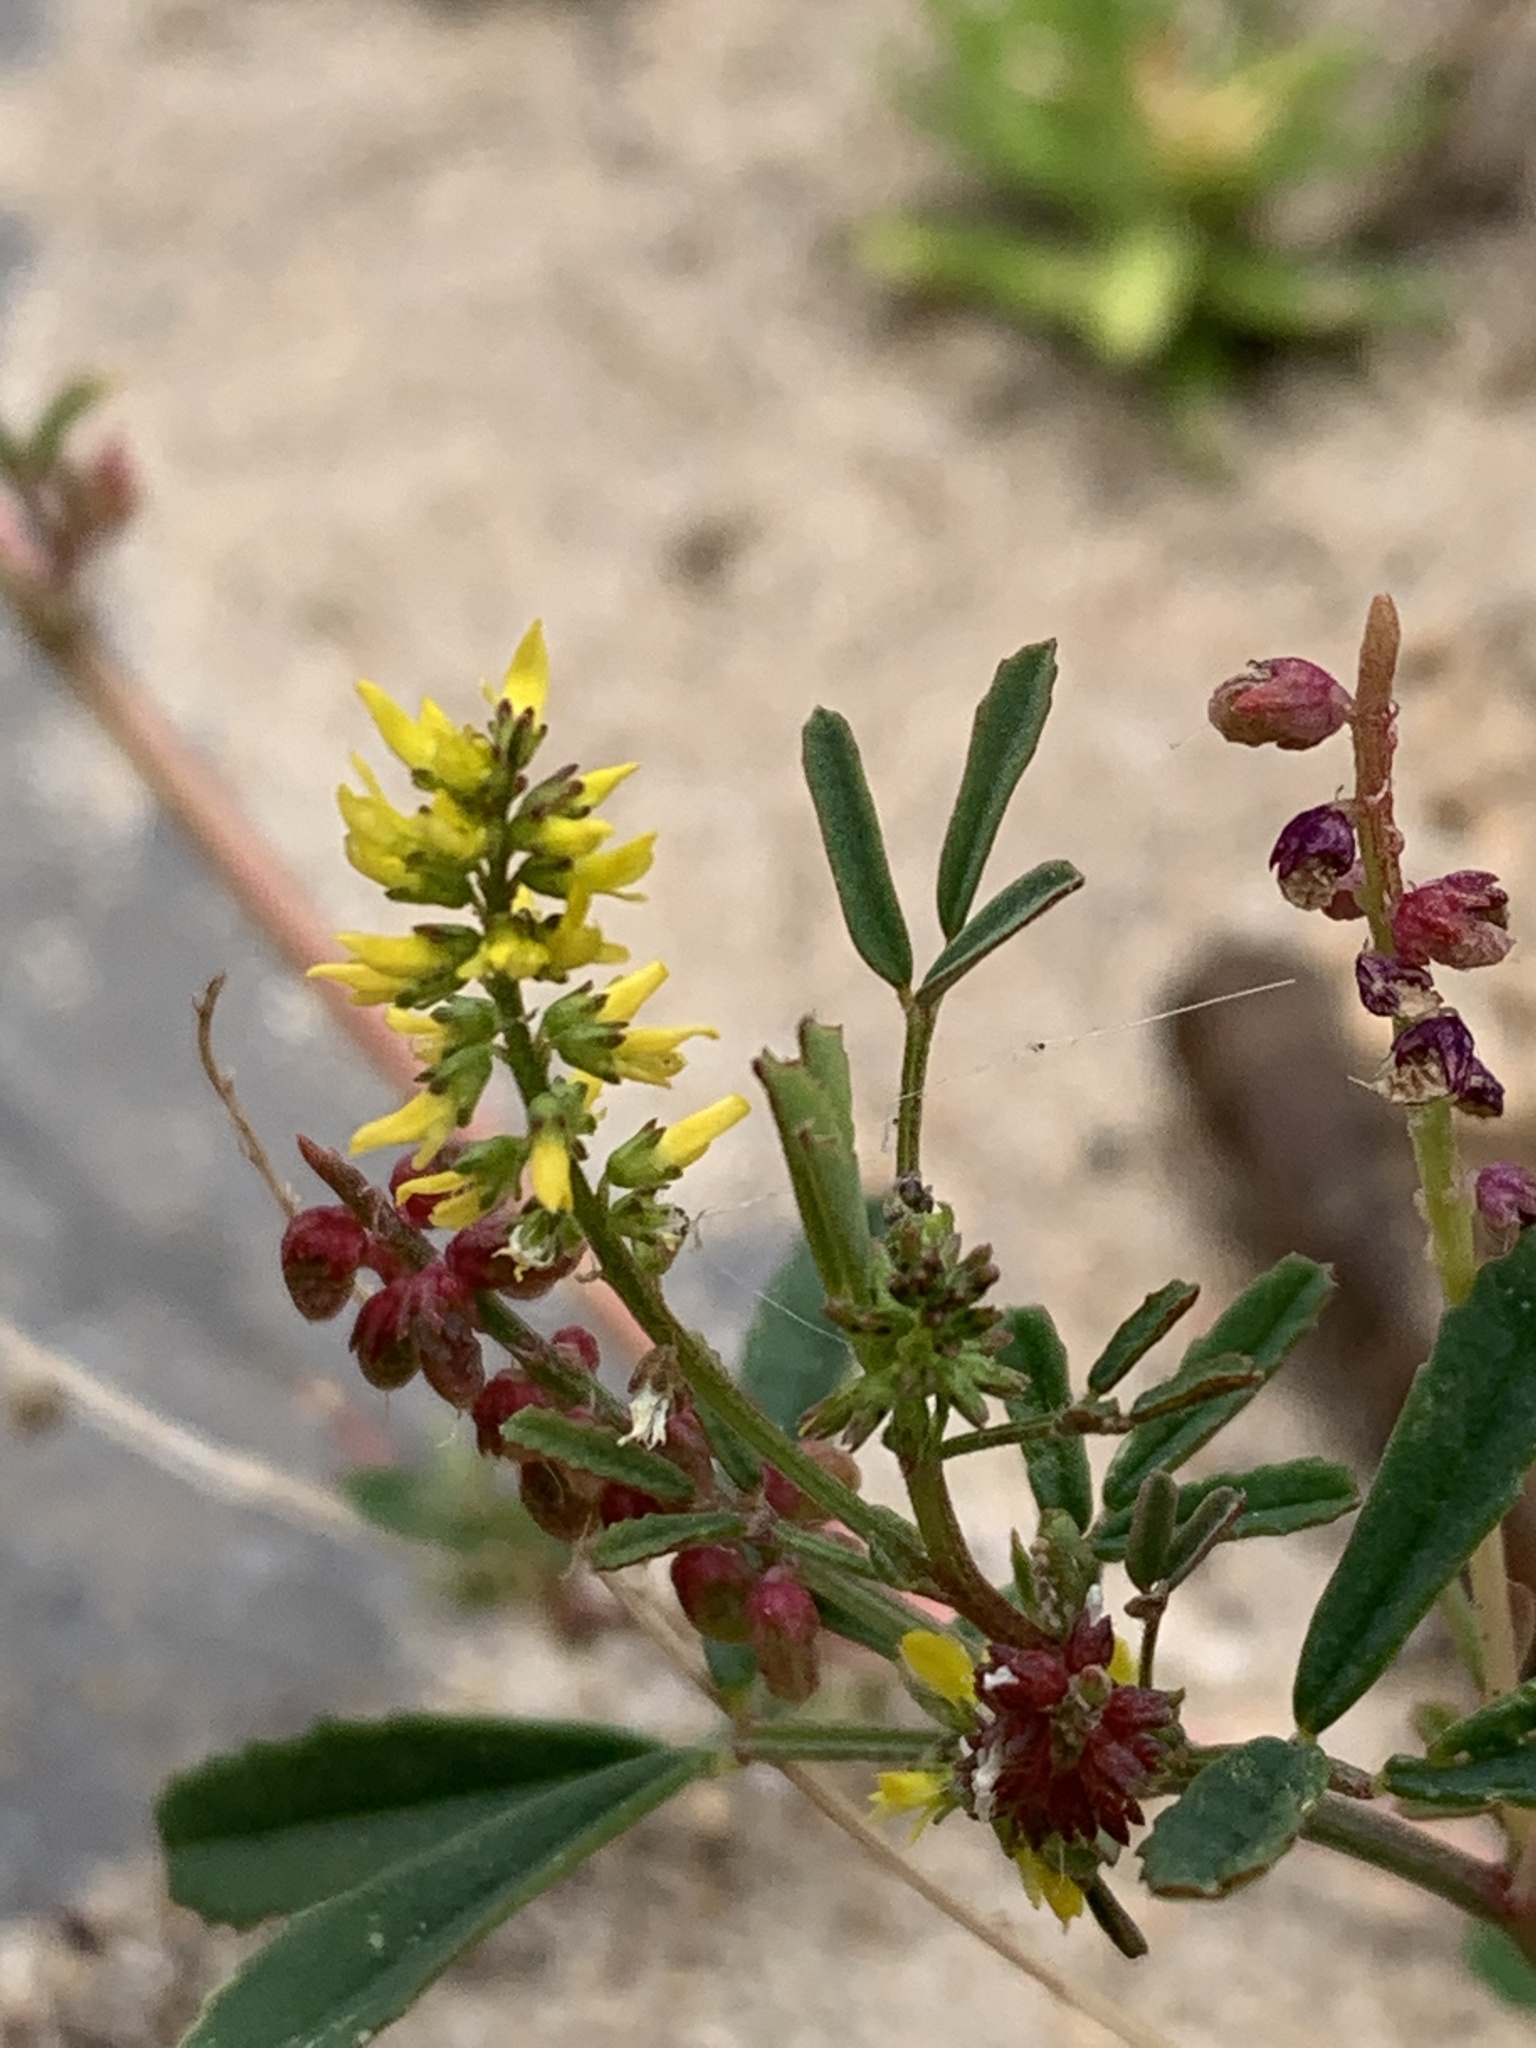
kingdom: Plantae
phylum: Tracheophyta
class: Magnoliopsida
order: Fabales
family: Fabaceae
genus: Melilotus
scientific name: Melilotus indicus
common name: Small melilot
